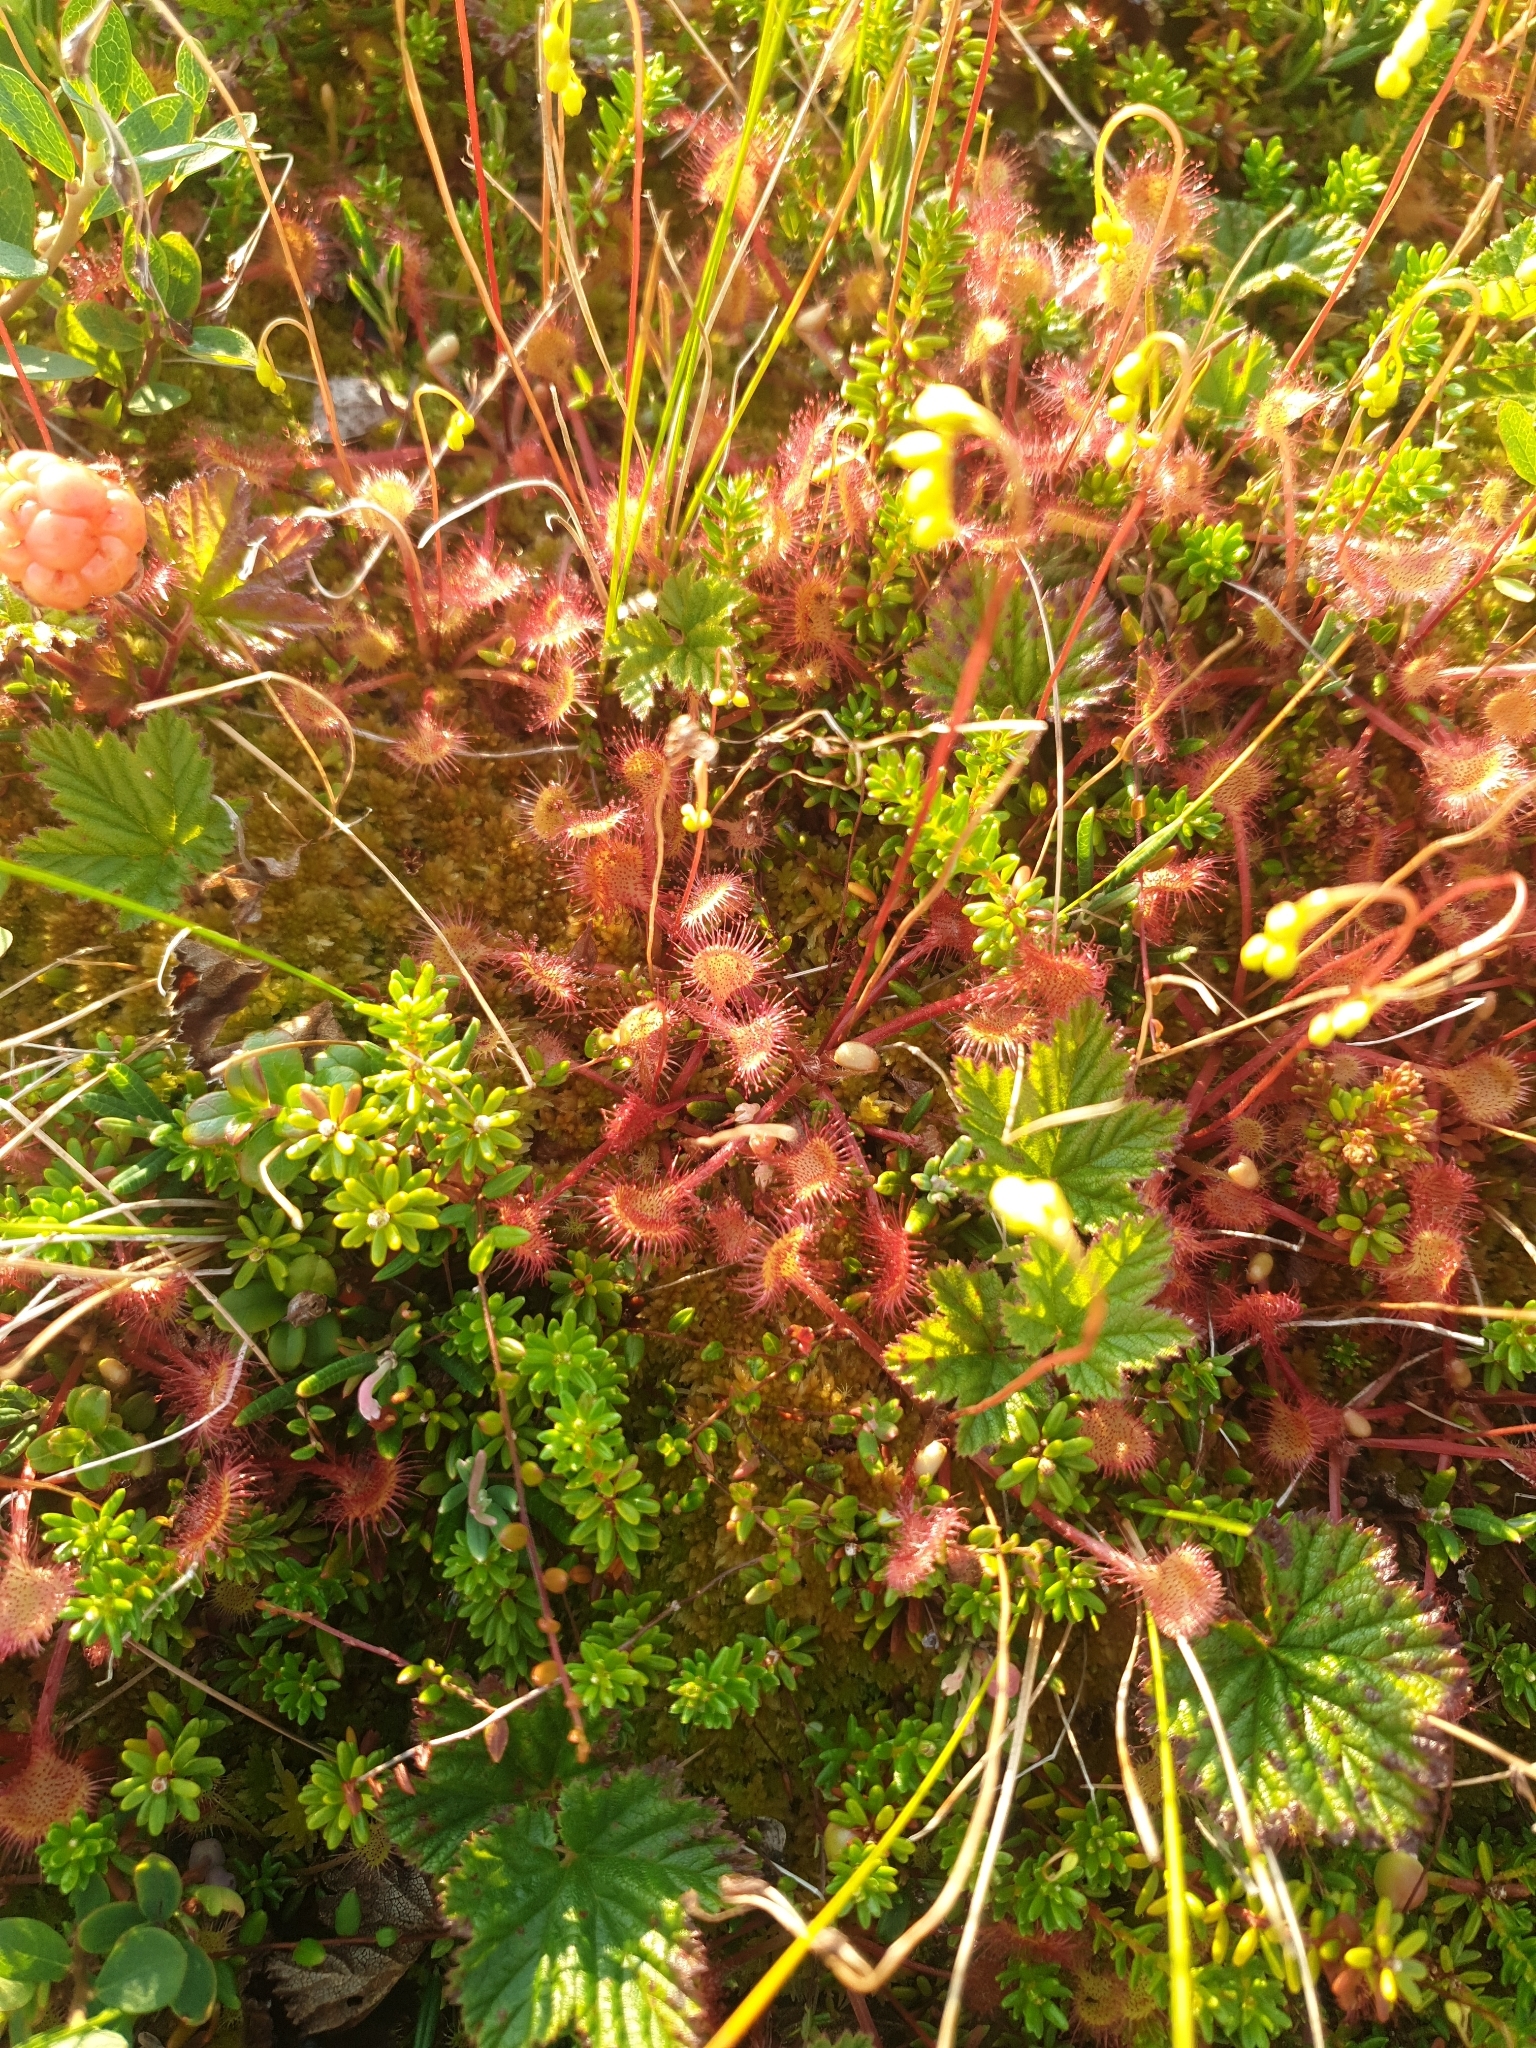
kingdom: Plantae
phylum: Tracheophyta
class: Magnoliopsida
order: Caryophyllales
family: Droseraceae
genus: Drosera
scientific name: Drosera rotundifolia
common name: Round-leaved sundew
